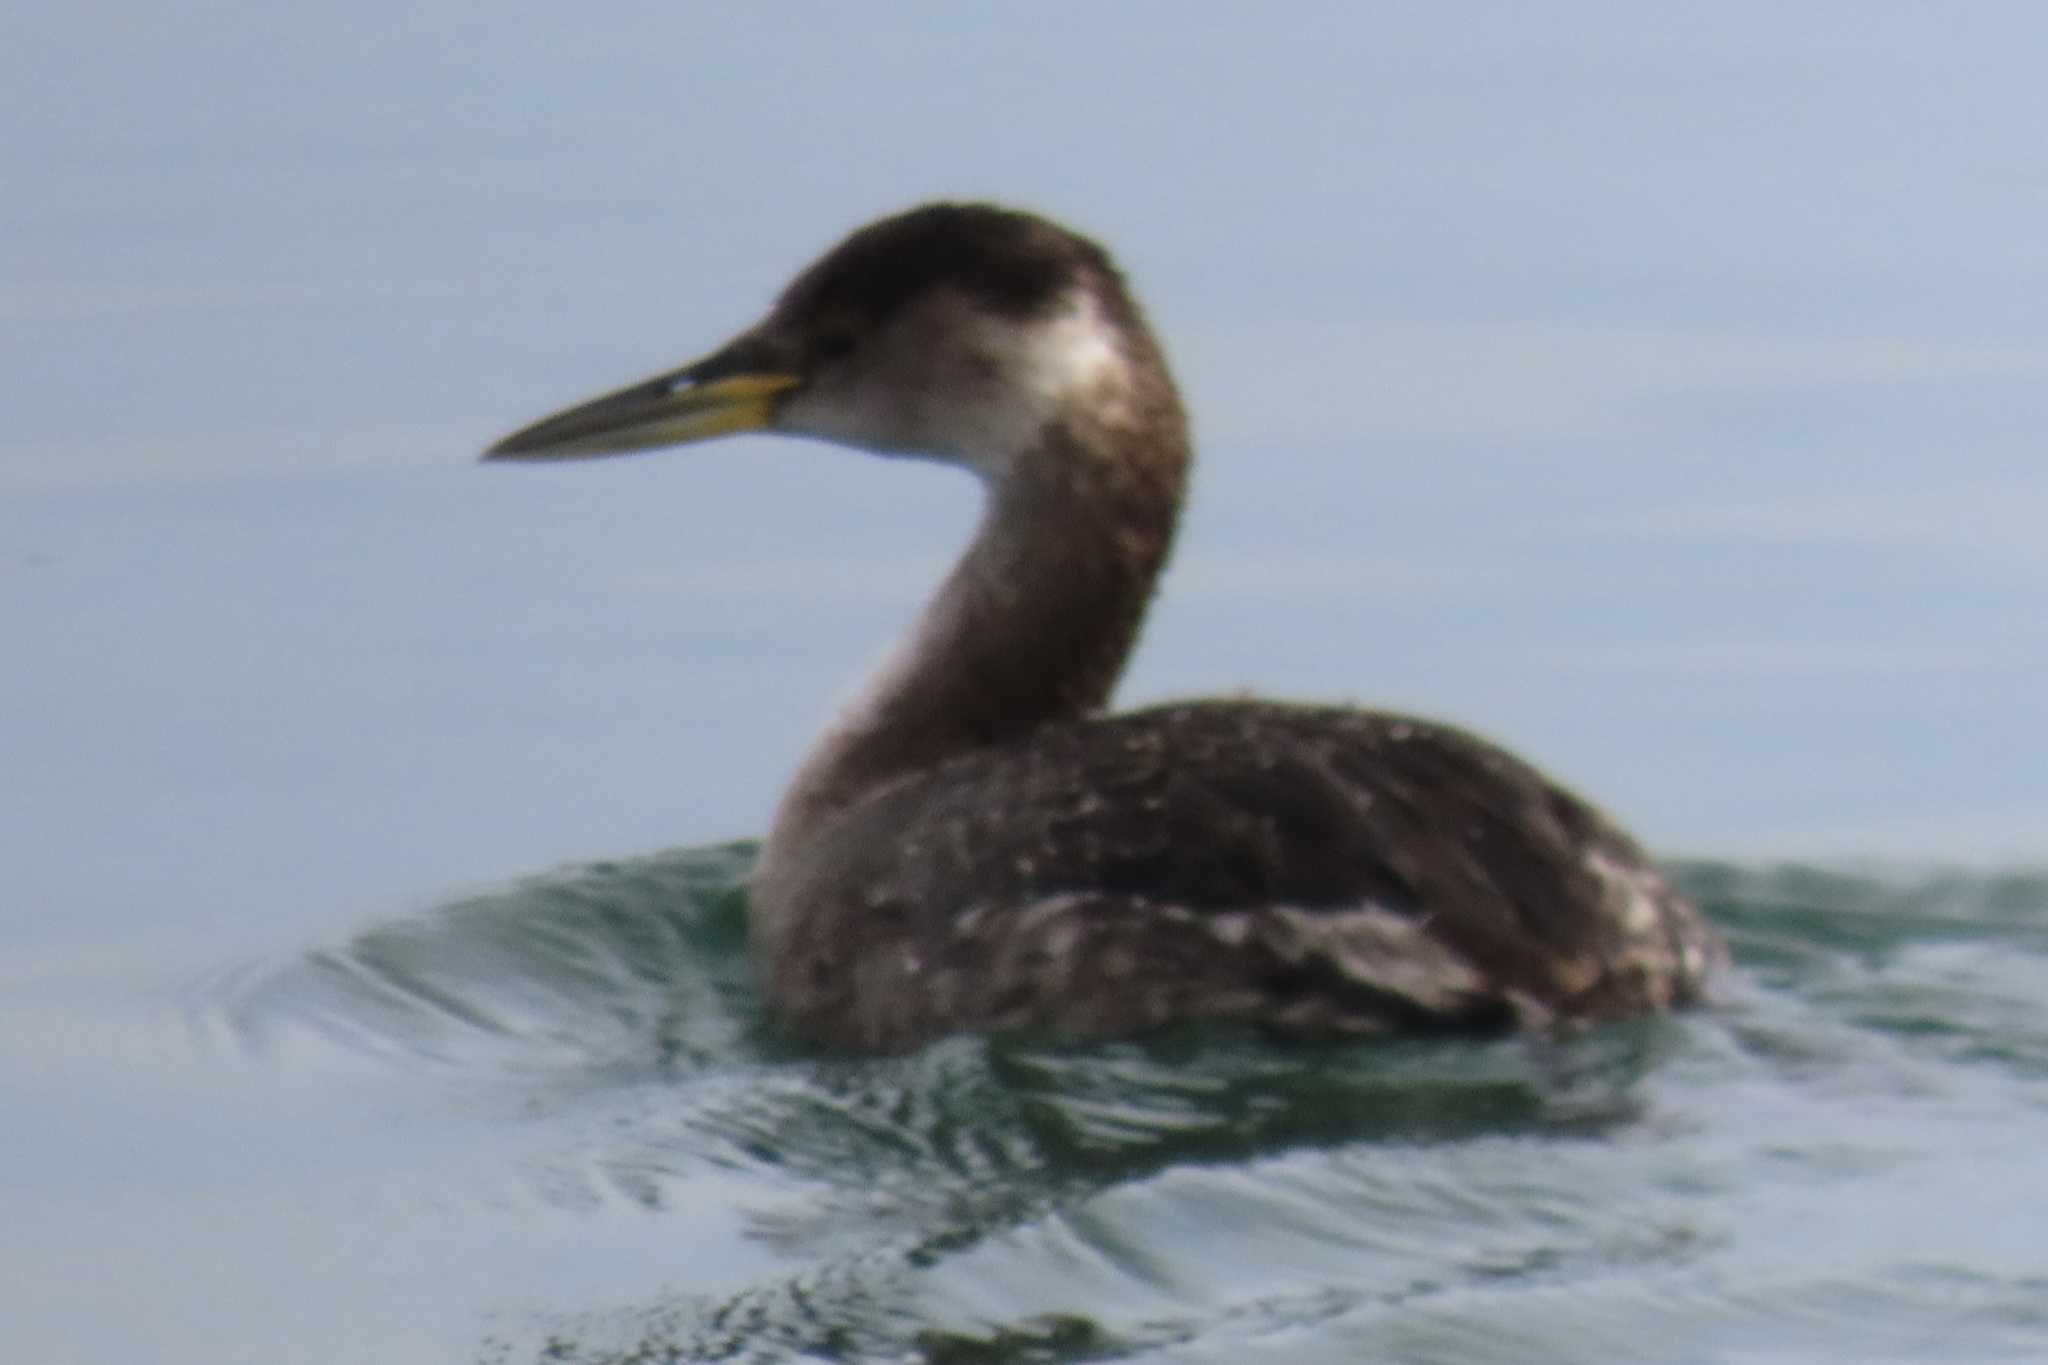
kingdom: Animalia
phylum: Chordata
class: Aves
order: Podicipediformes
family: Podicipedidae
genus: Podiceps
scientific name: Podiceps grisegena
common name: Red-necked grebe
